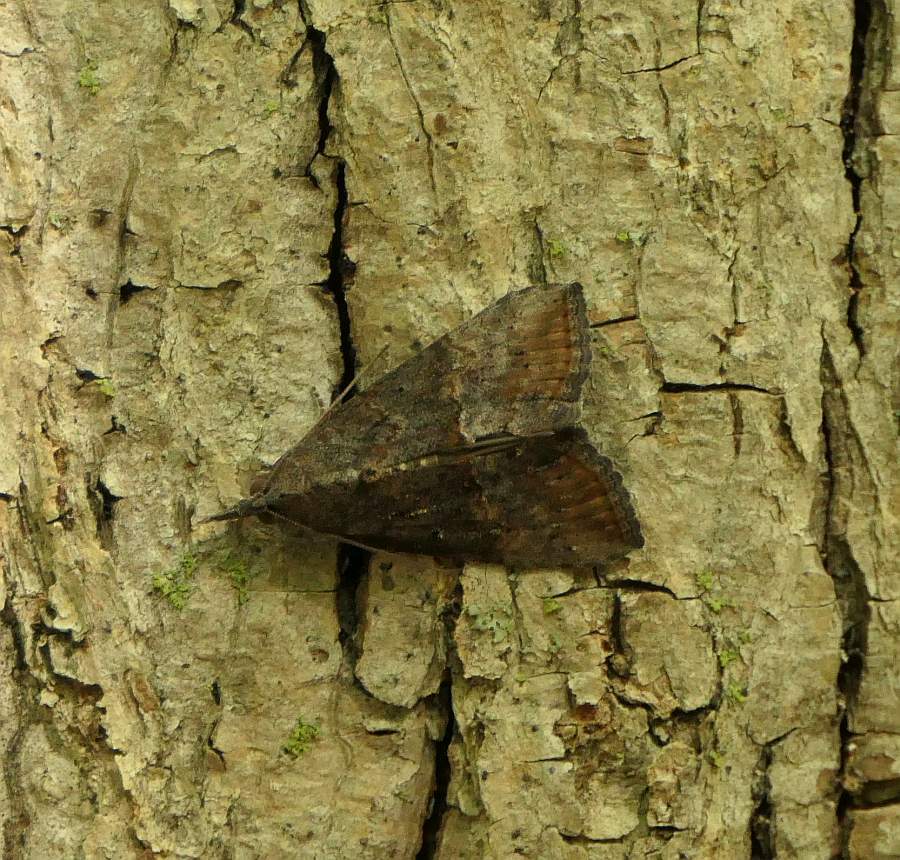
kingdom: Animalia
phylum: Arthropoda
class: Insecta
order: Lepidoptera
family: Erebidae
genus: Hypena
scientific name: Hypena scabra
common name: Green cloverworm
